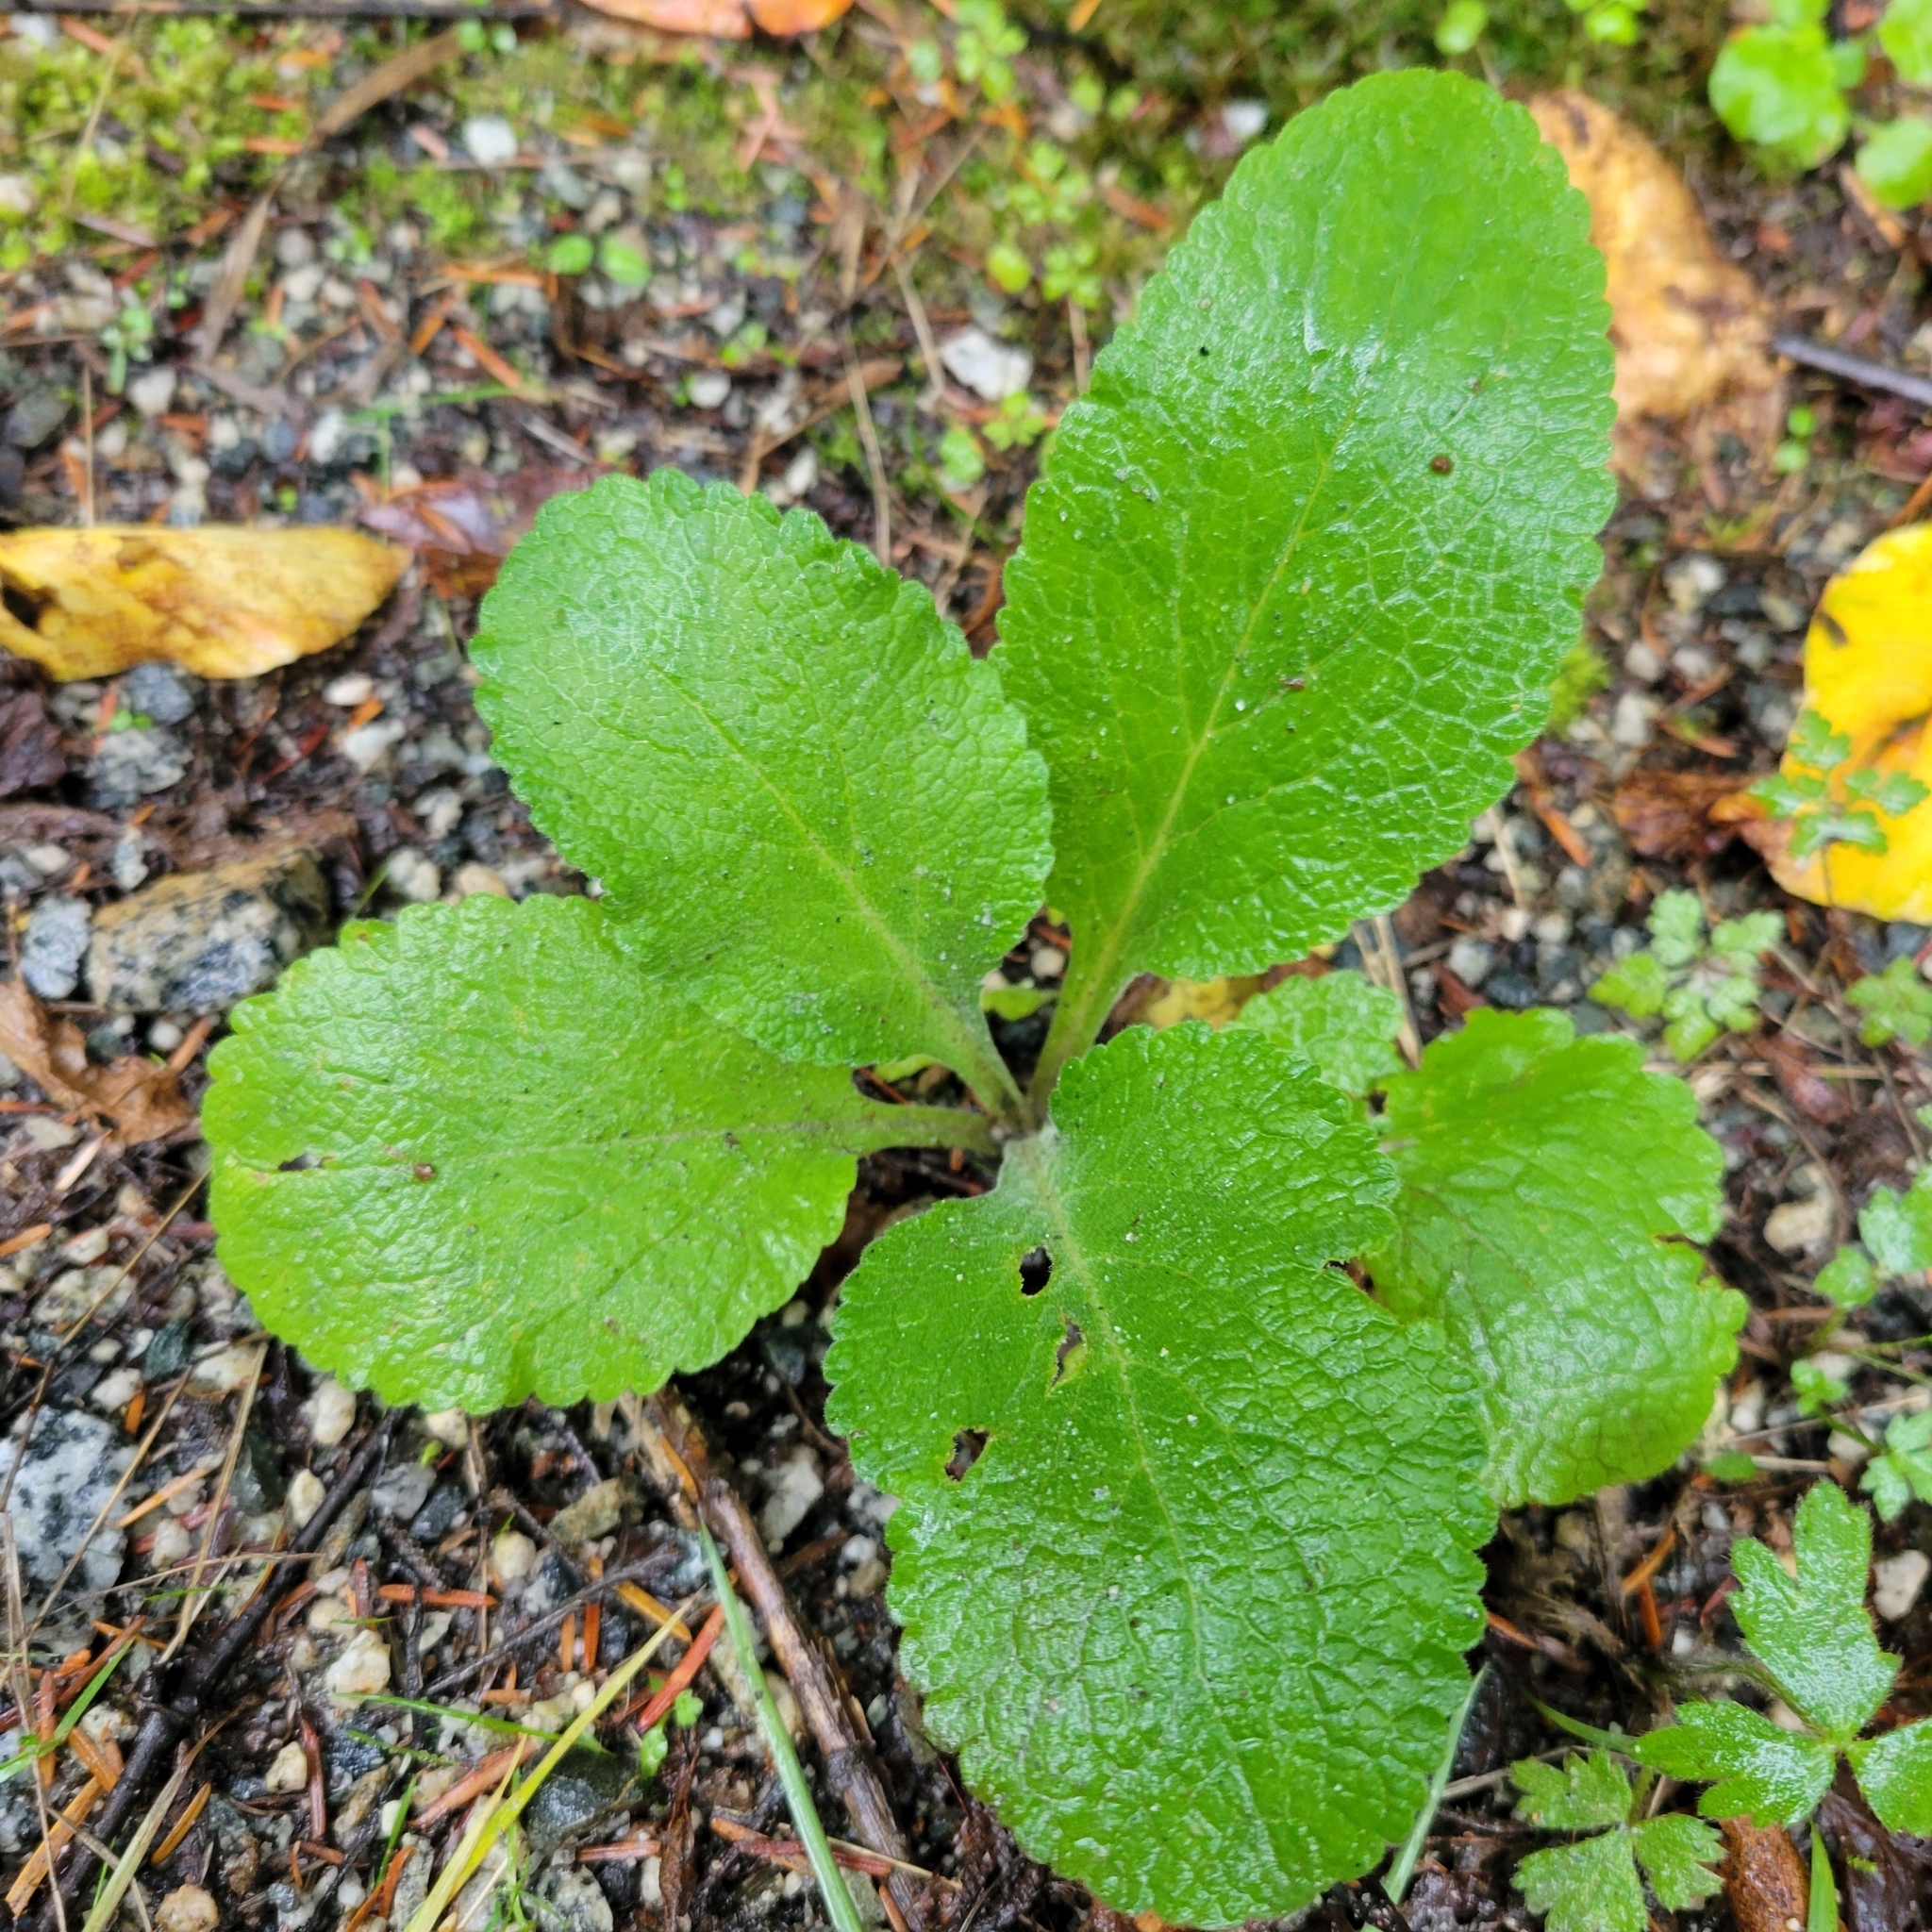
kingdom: Plantae
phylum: Tracheophyta
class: Magnoliopsida
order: Lamiales
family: Plantaginaceae
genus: Digitalis
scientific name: Digitalis purpurea
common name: Foxglove
